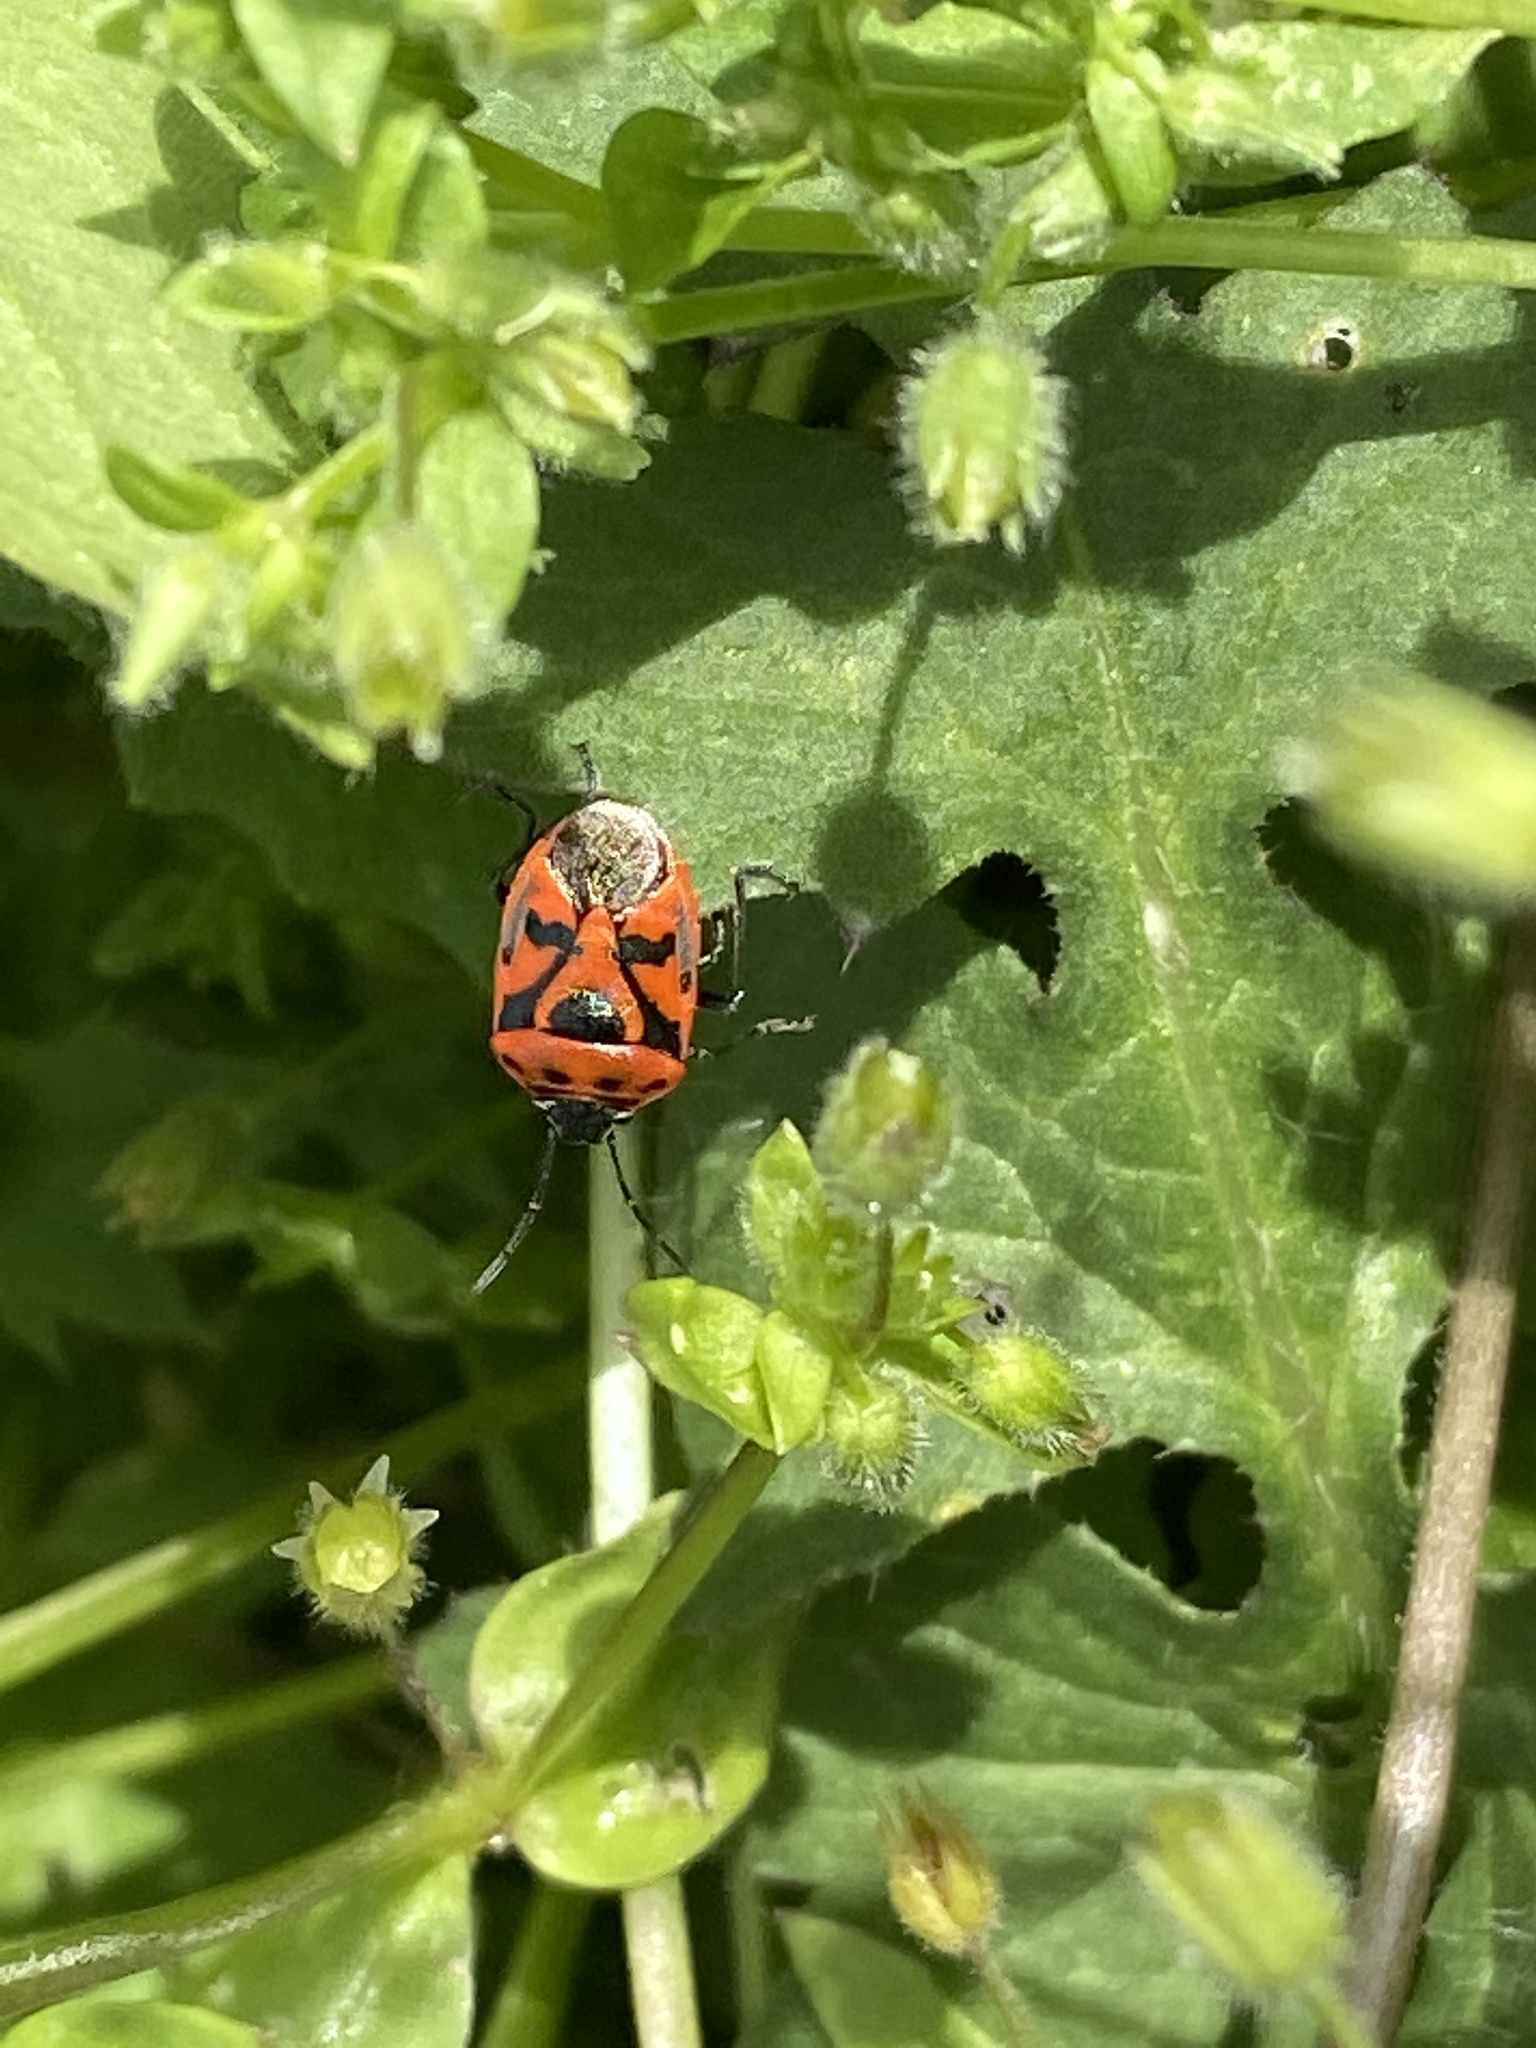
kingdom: Animalia
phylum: Arthropoda
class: Insecta
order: Hemiptera
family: Pentatomidae
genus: Eurydema
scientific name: Eurydema ornata
